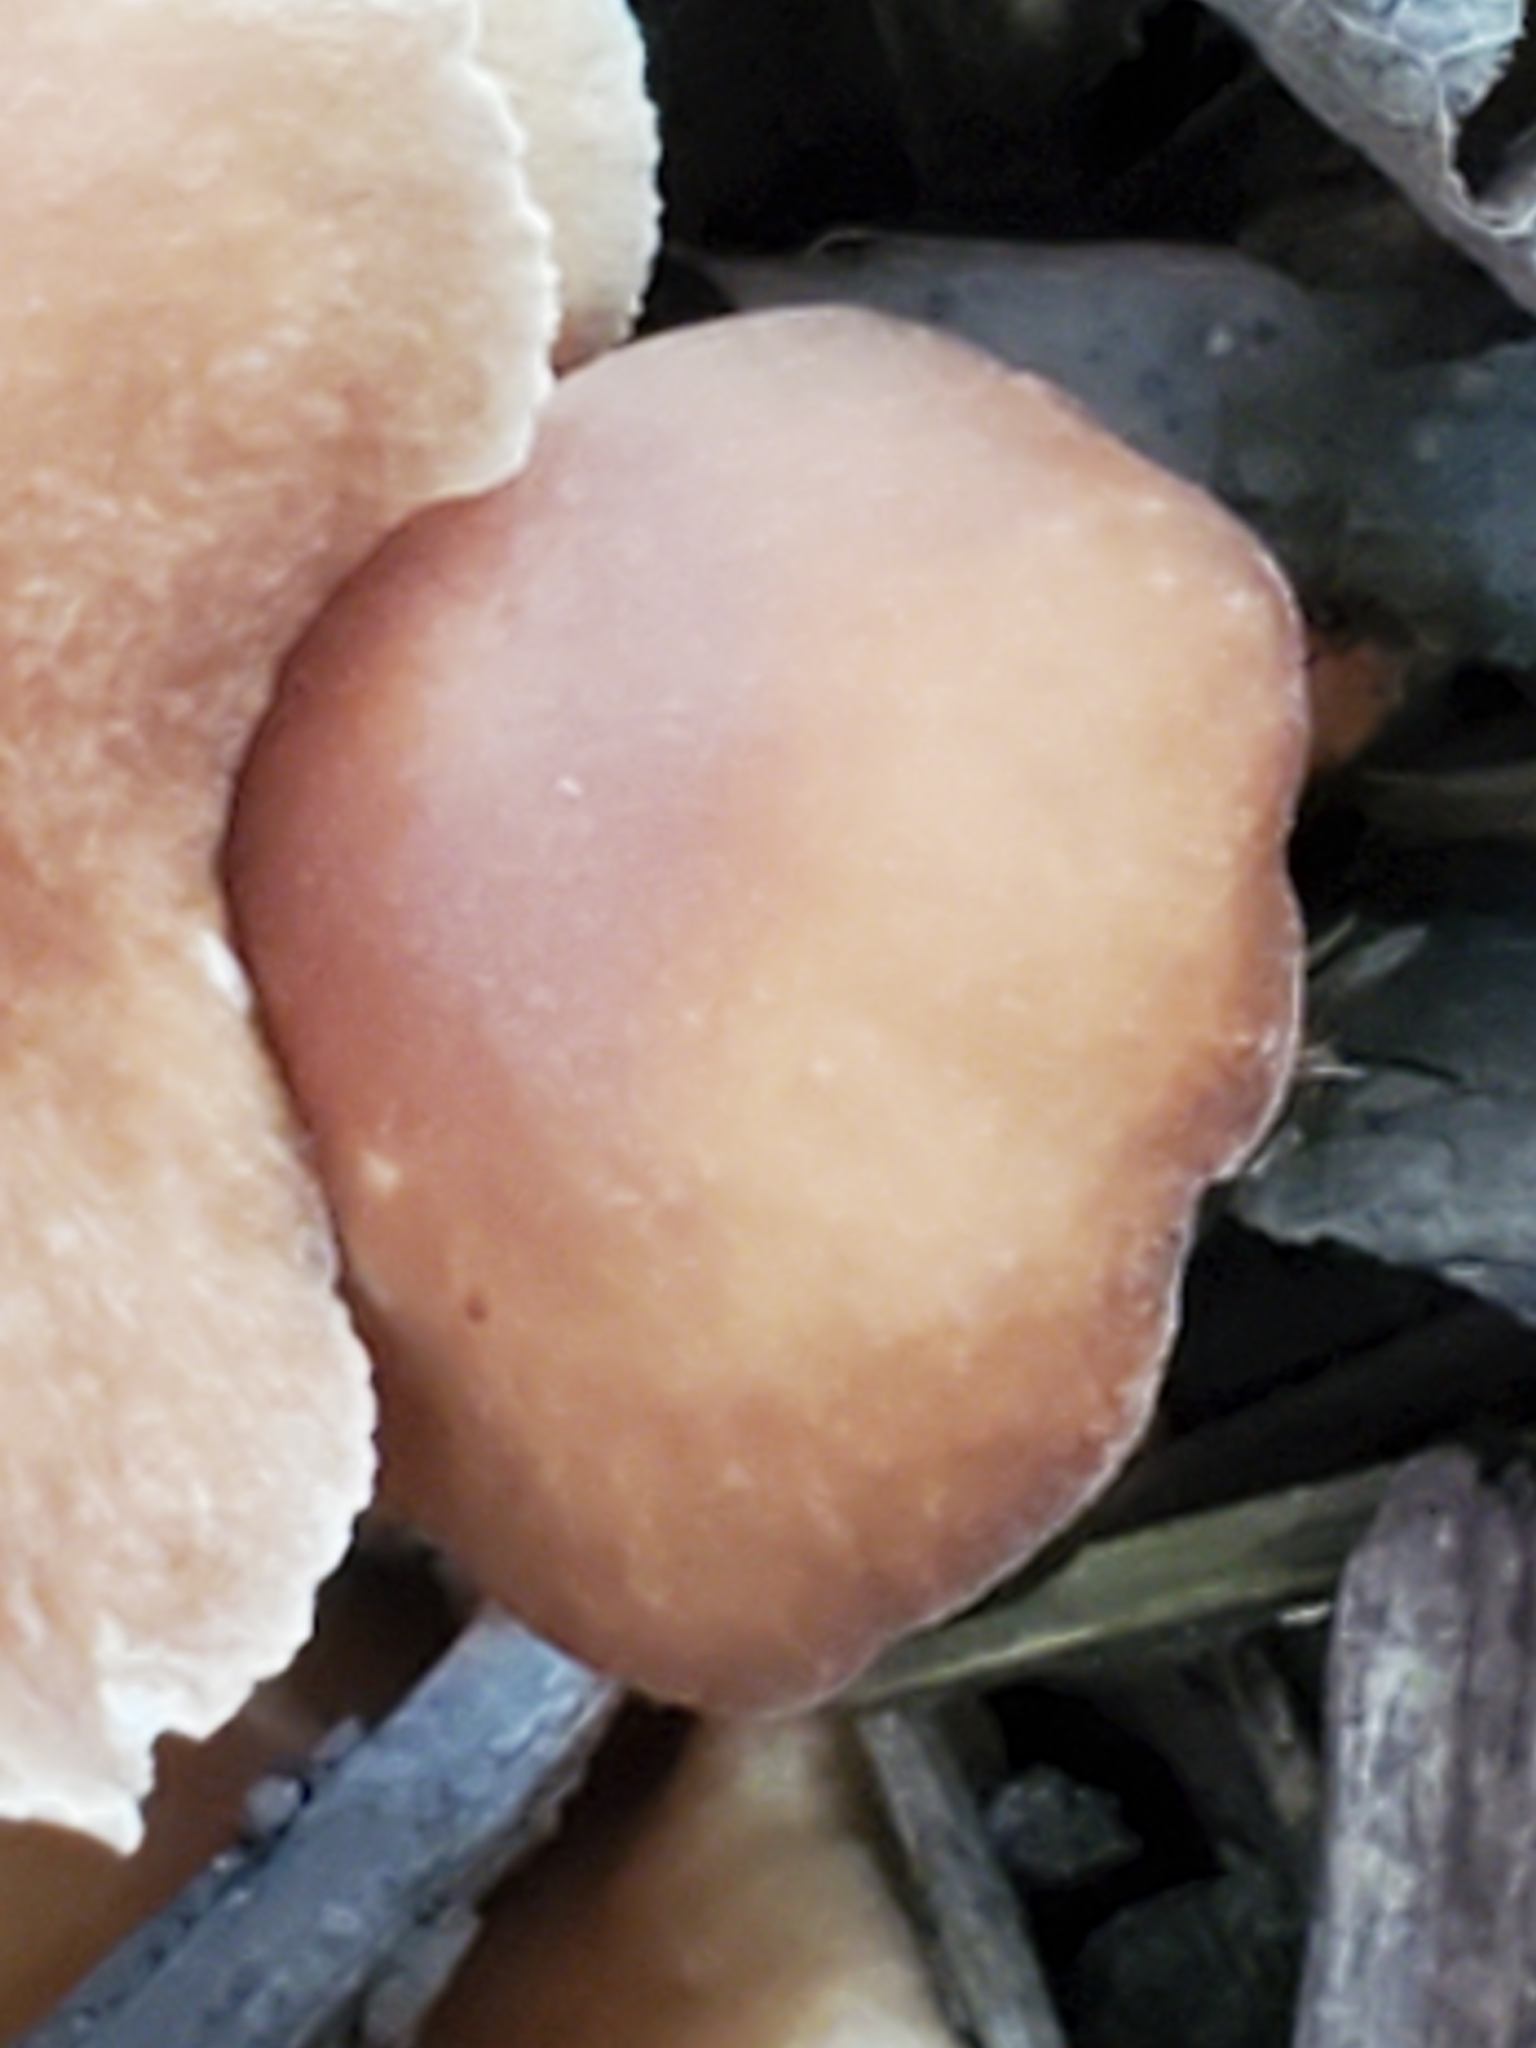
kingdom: Fungi
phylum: Basidiomycota
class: Agaricomycetes
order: Agaricales
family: Omphalotaceae
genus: Collybiopsis
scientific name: Collybiopsis luxurians
